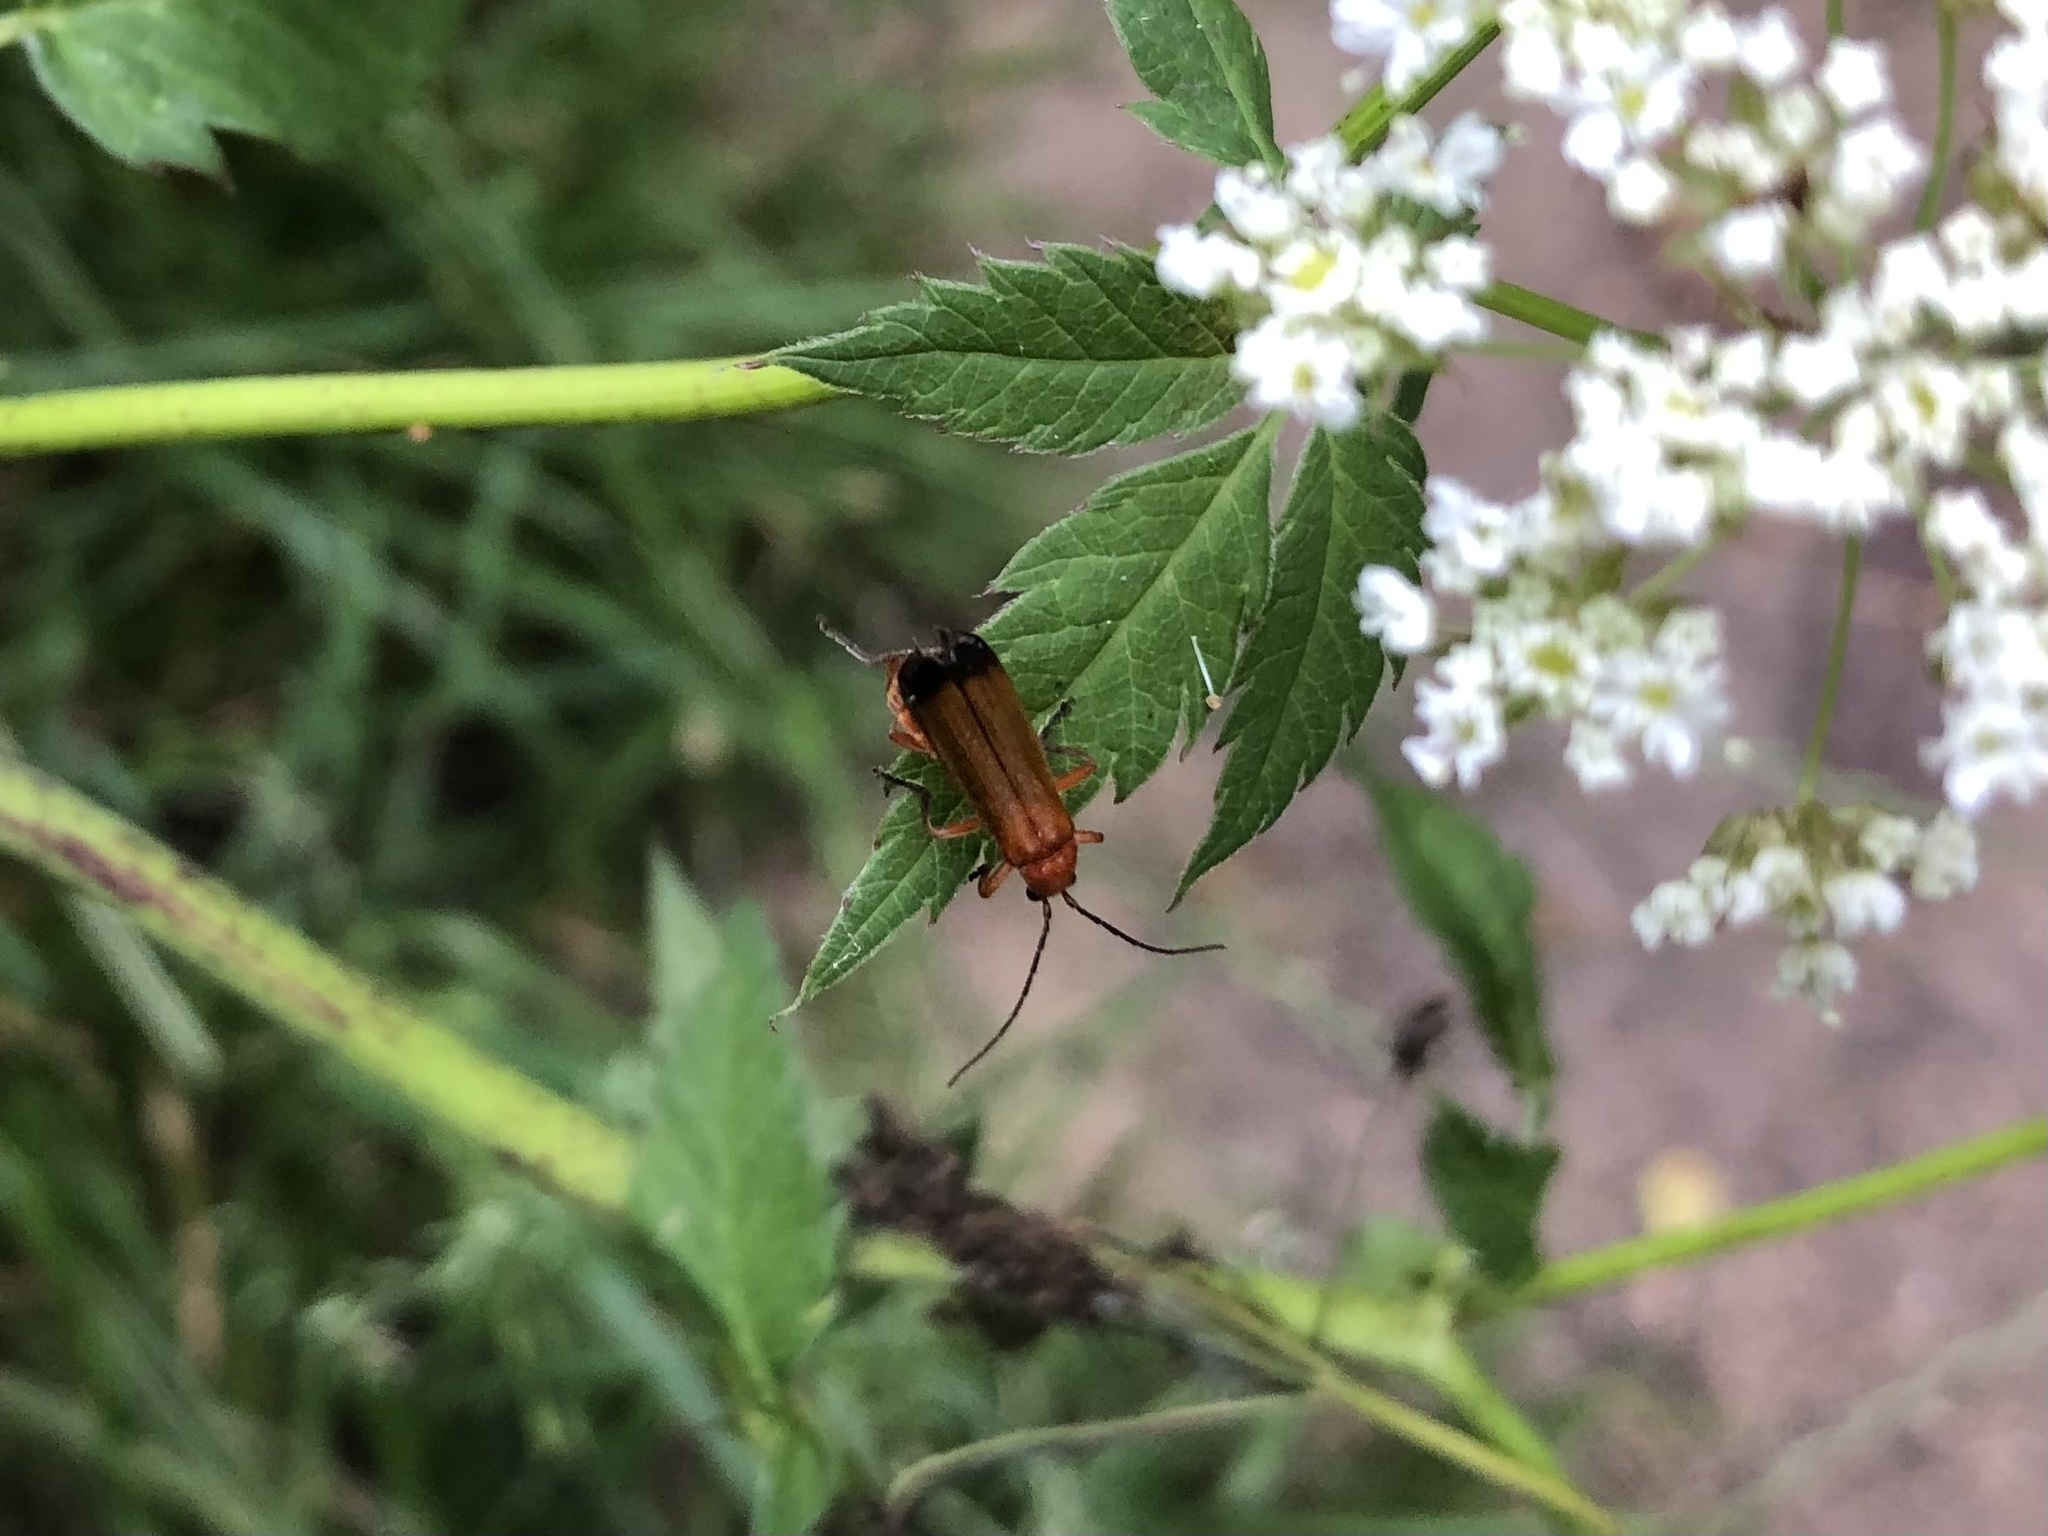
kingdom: Animalia
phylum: Arthropoda
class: Insecta
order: Coleoptera
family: Cantharidae
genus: Rhagonycha
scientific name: Rhagonycha fulva
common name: Common red soldier beetle
